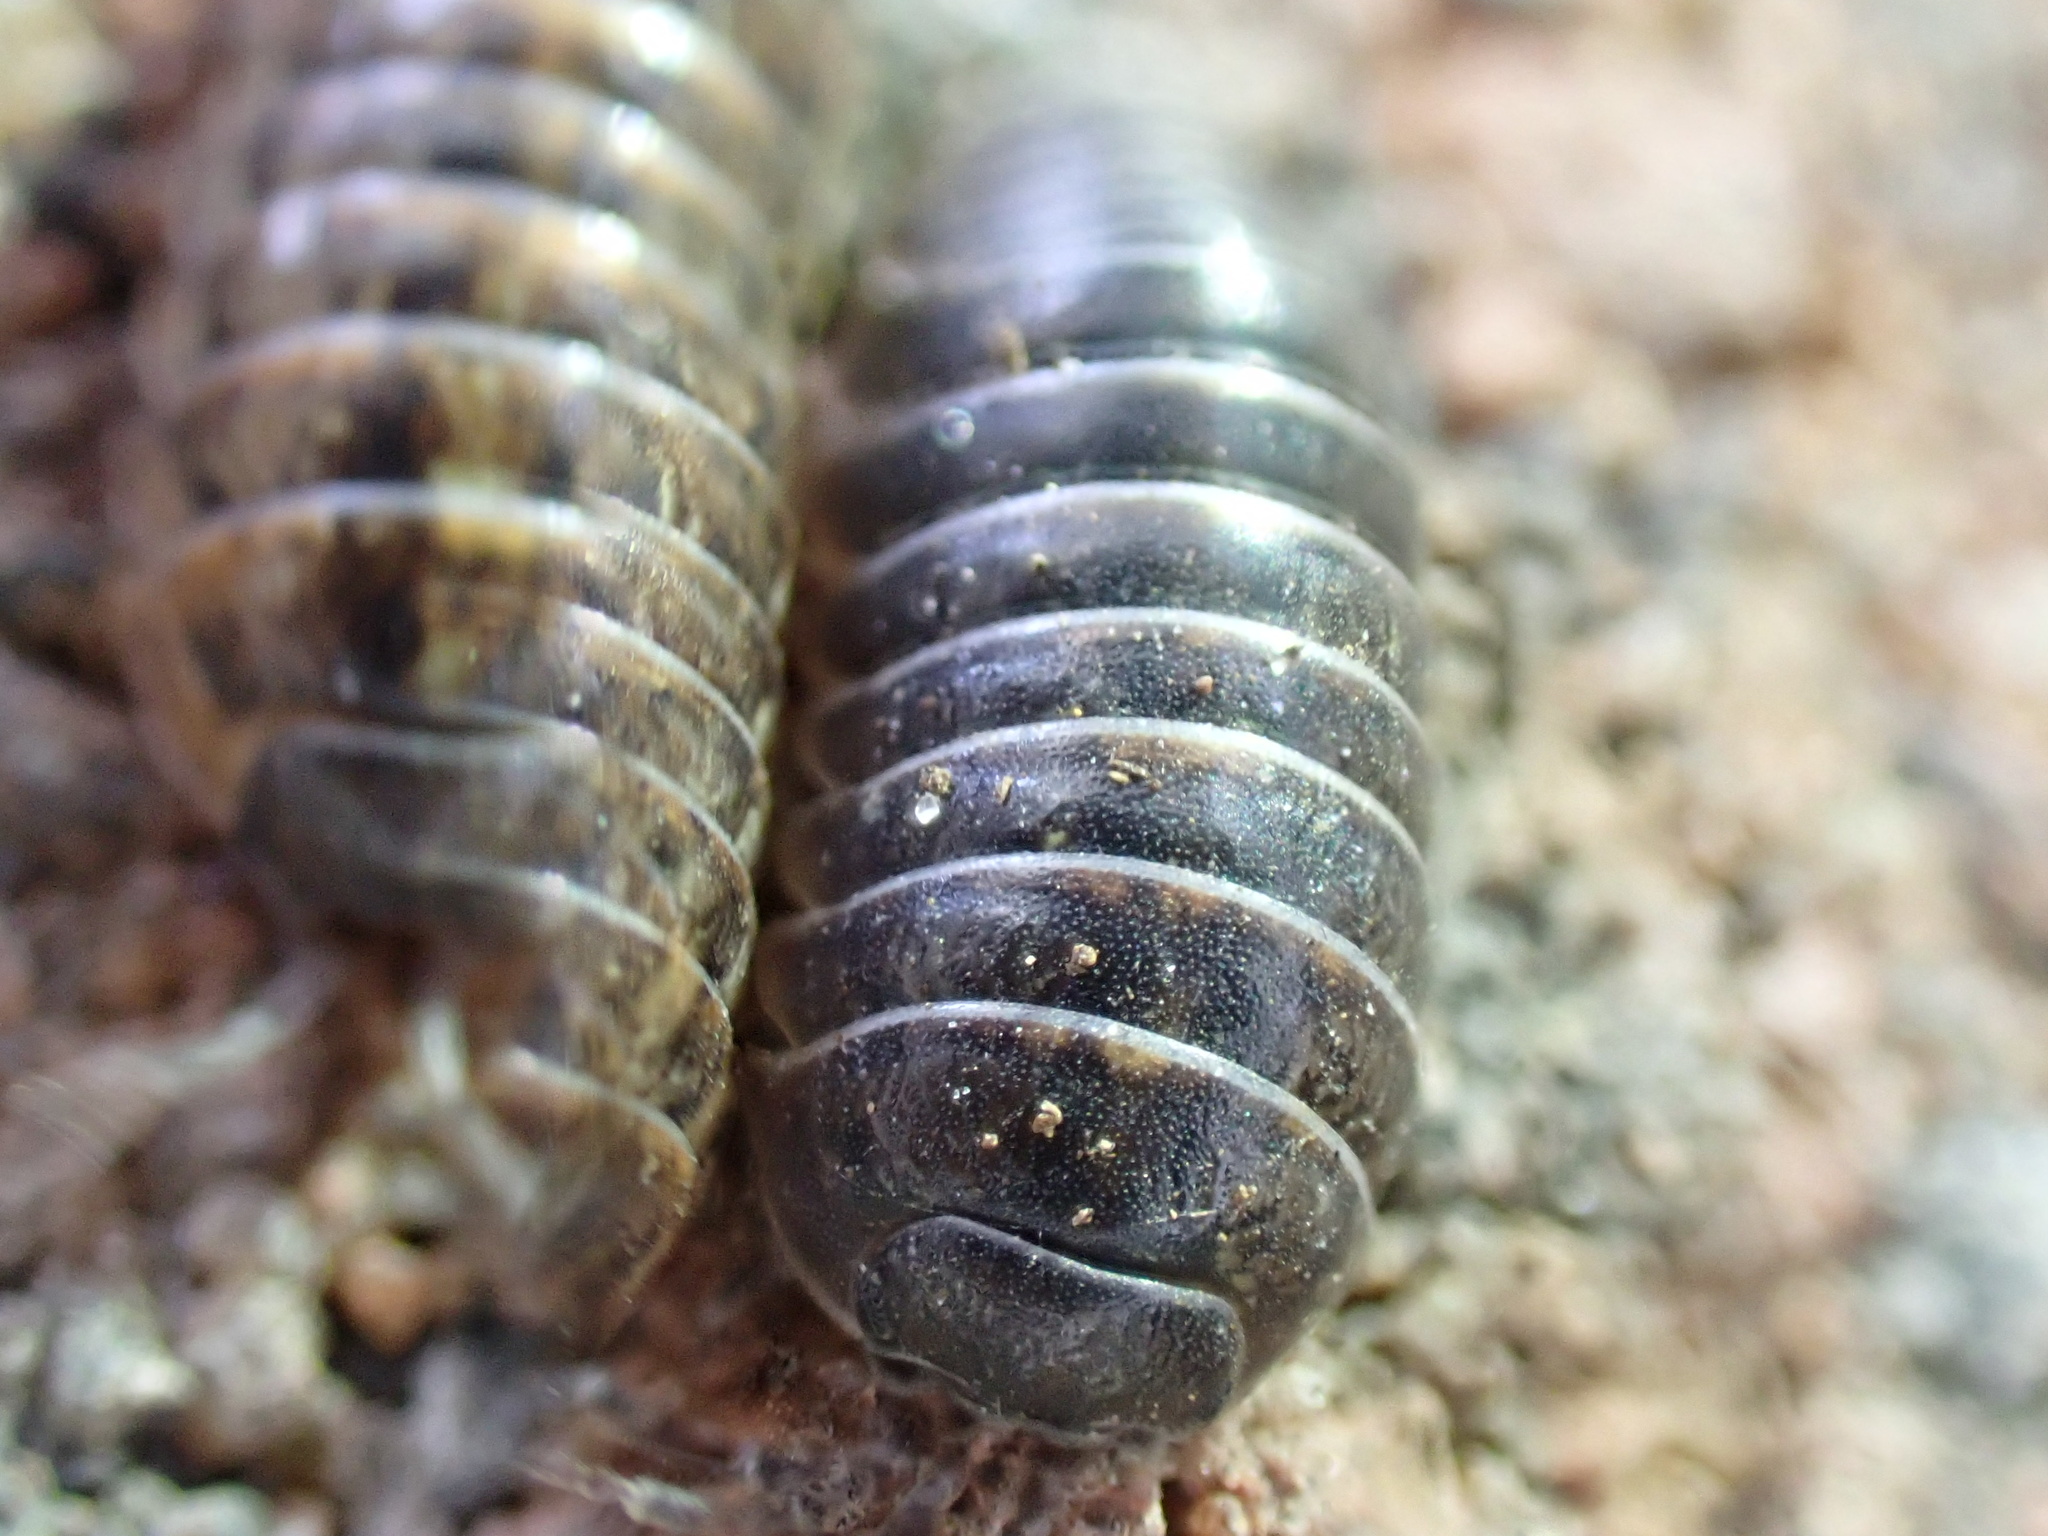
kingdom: Animalia
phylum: Arthropoda
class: Malacostraca
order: Isopoda
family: Armadillidiidae
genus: Armadillidium
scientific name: Armadillidium vulgare
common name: Common pill woodlouse
